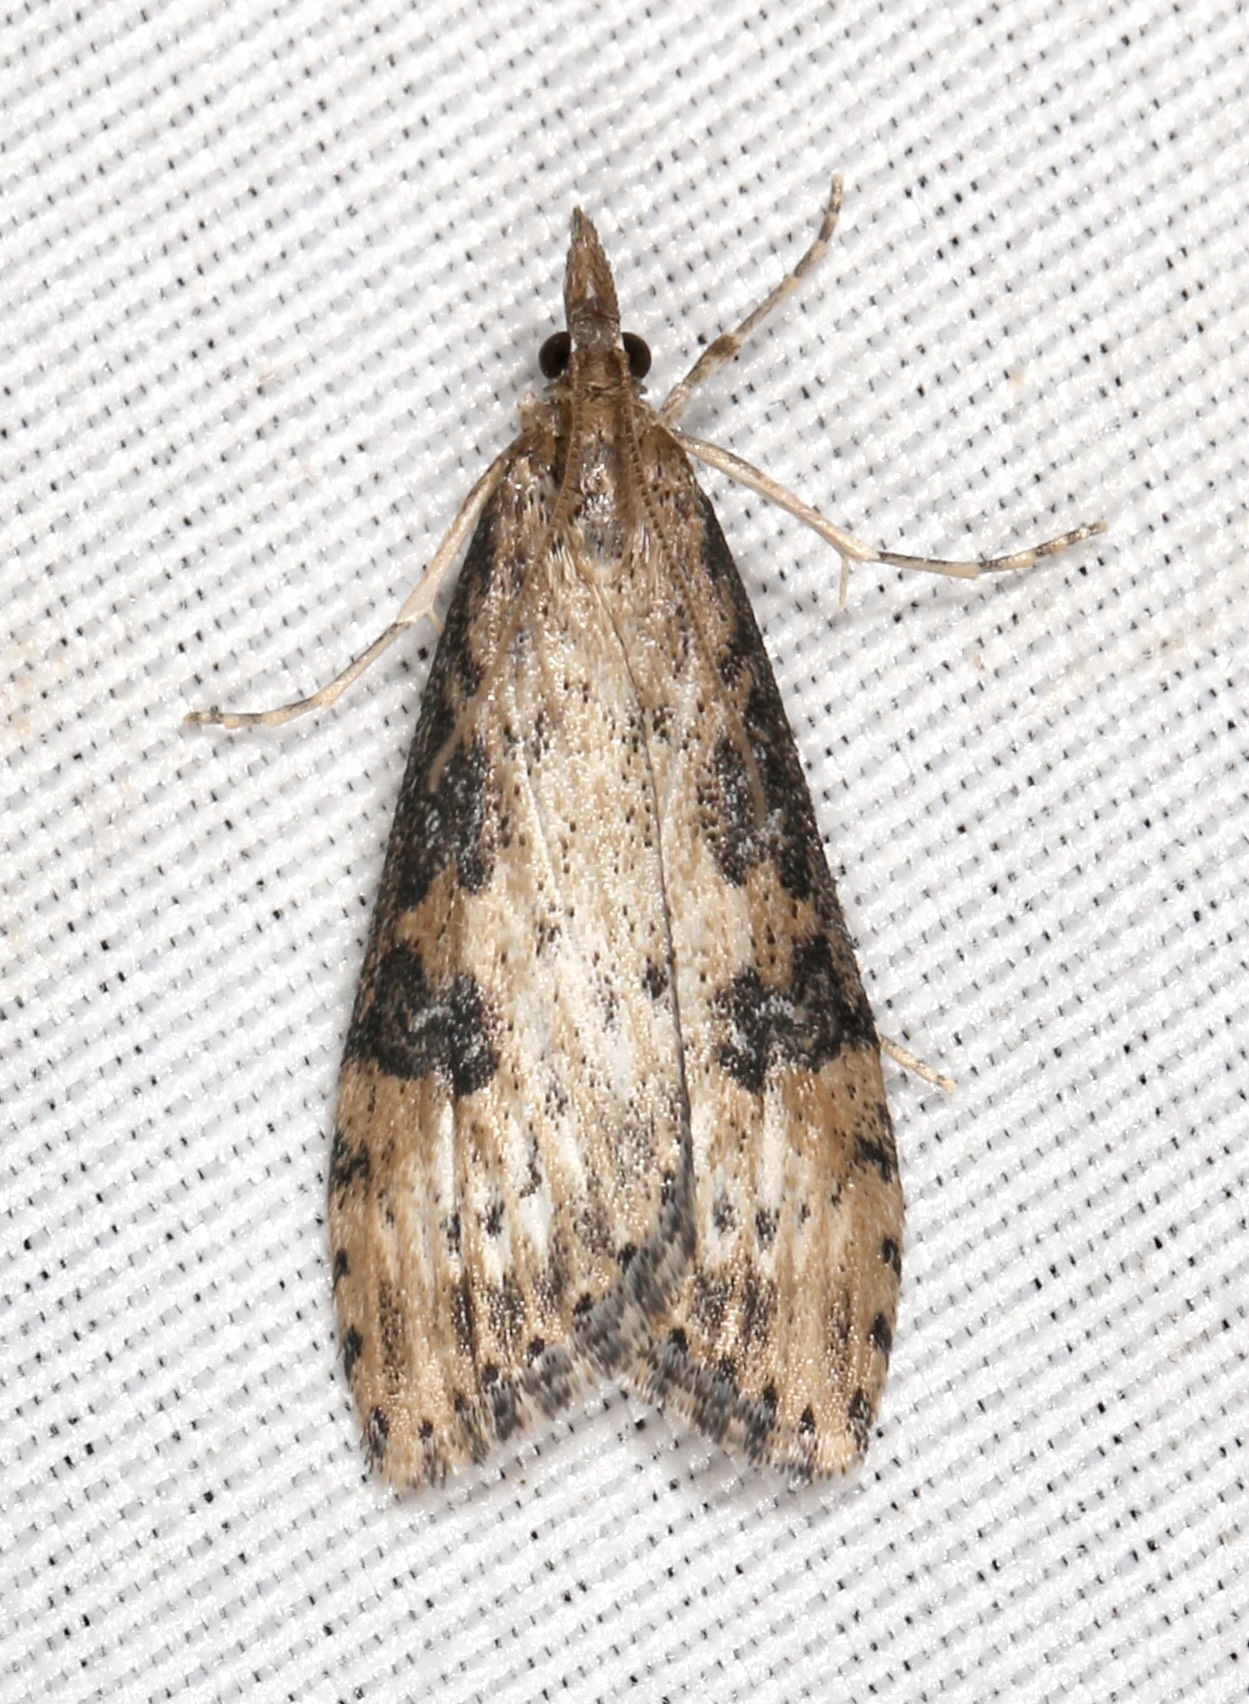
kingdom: Animalia
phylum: Arthropoda
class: Insecta
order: Lepidoptera
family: Crambidae
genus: Udea
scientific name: Udea turmalis
